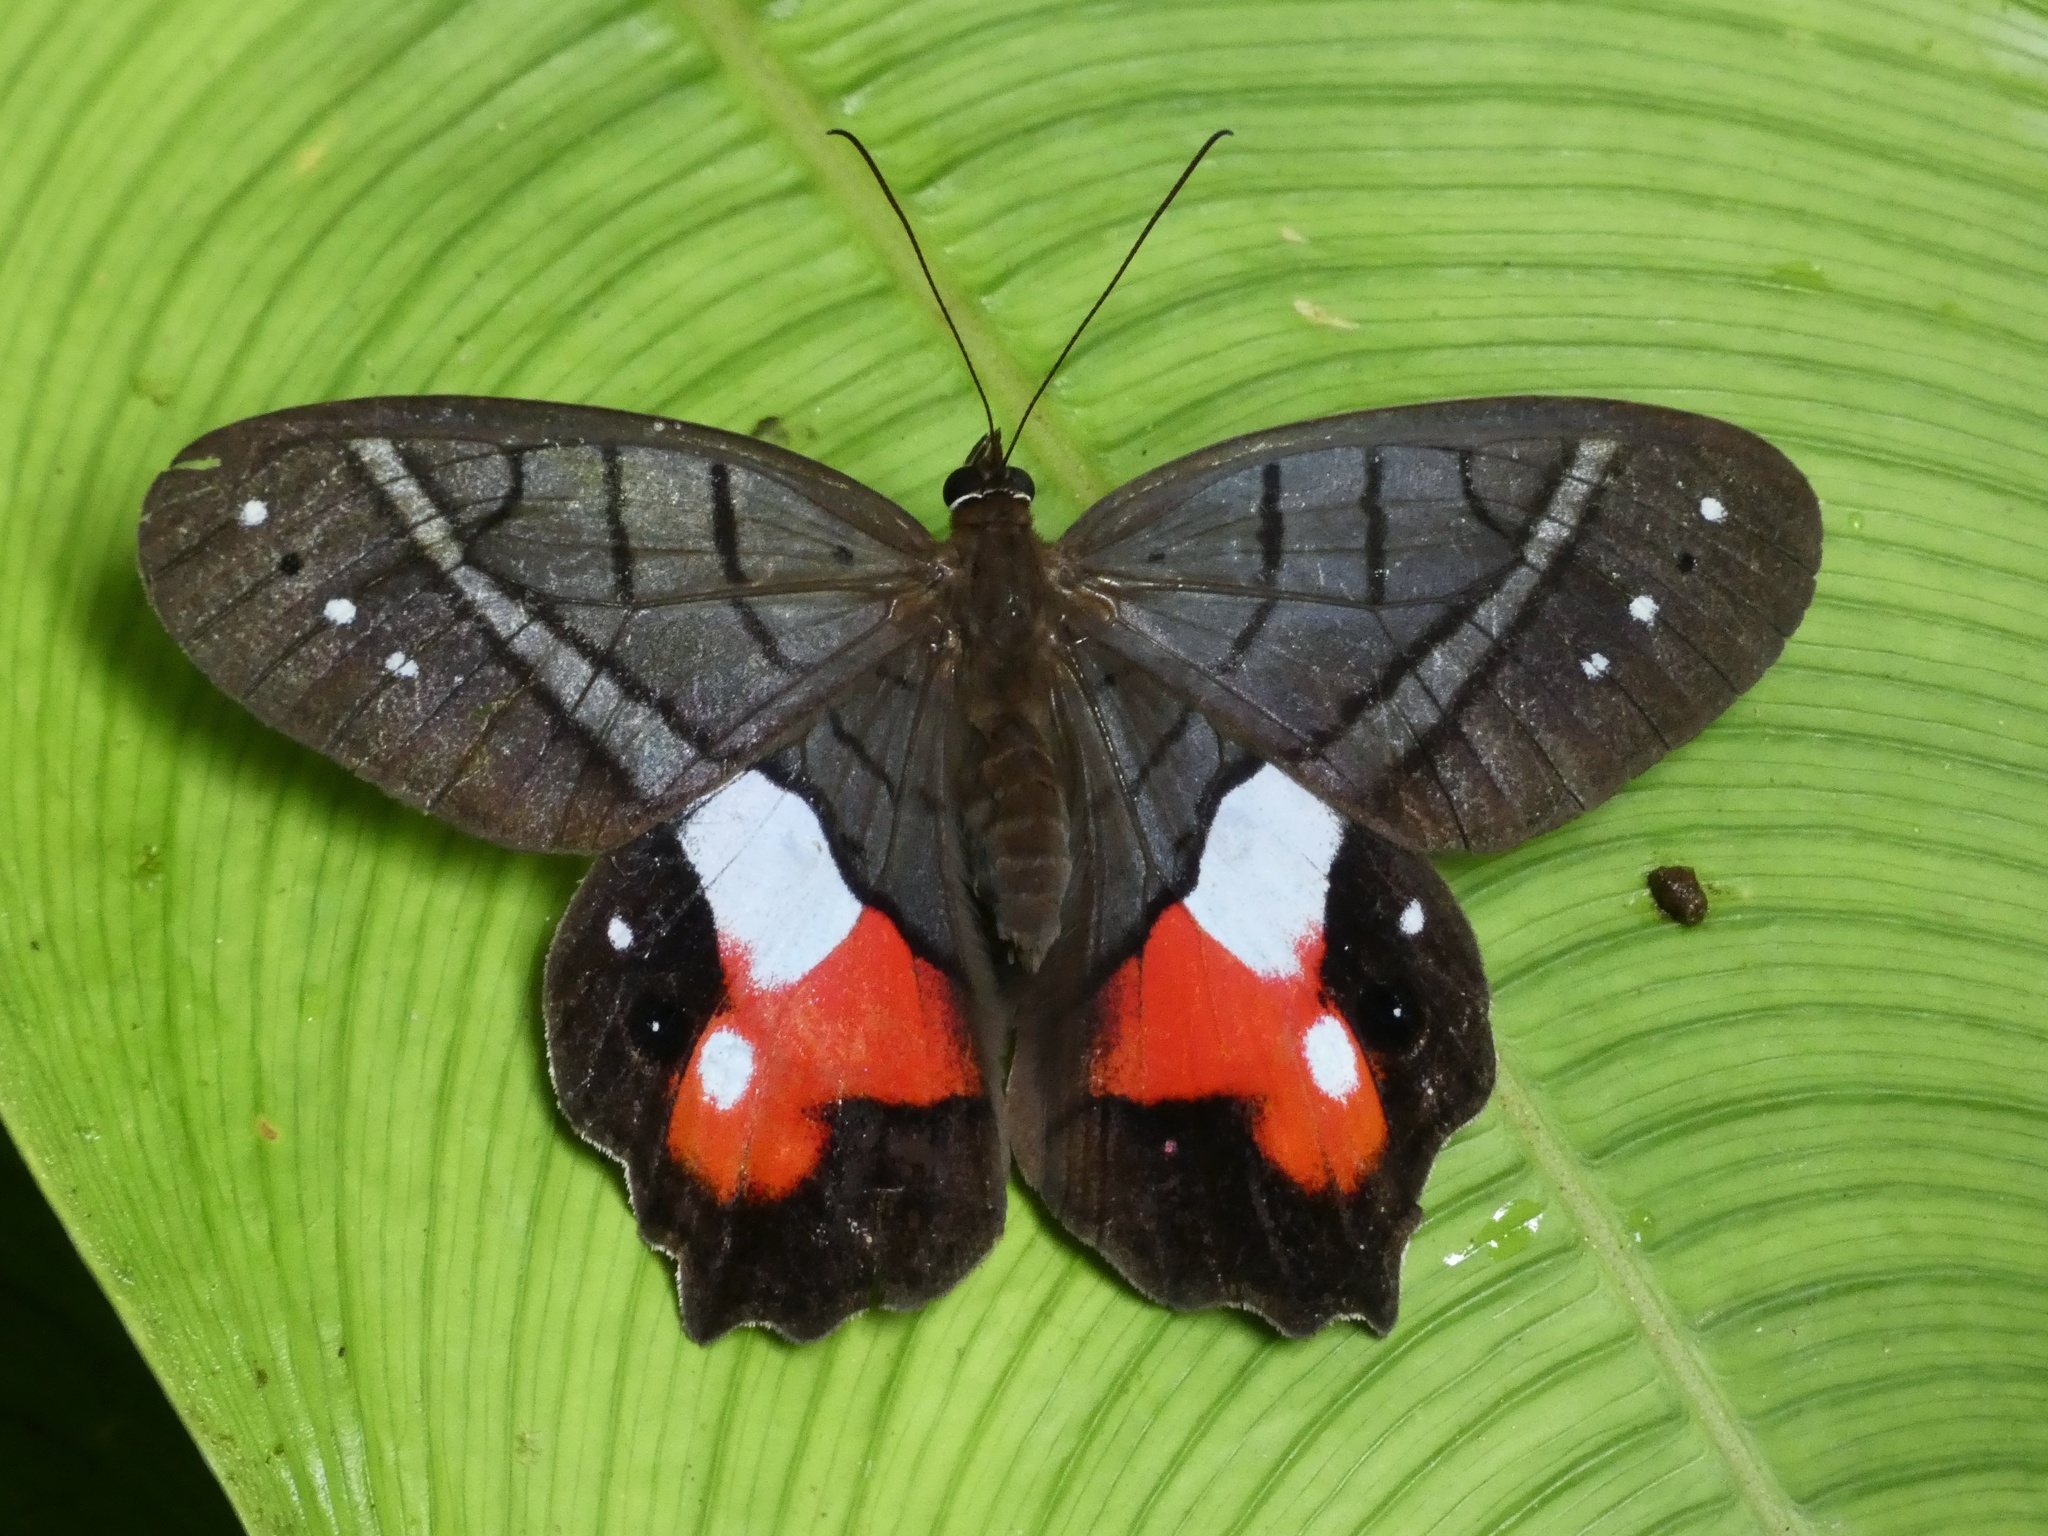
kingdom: Animalia
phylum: Arthropoda
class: Insecta
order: Lepidoptera
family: Nymphalidae
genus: Pierella
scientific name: Pierella helvina
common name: Red-washed satyr
